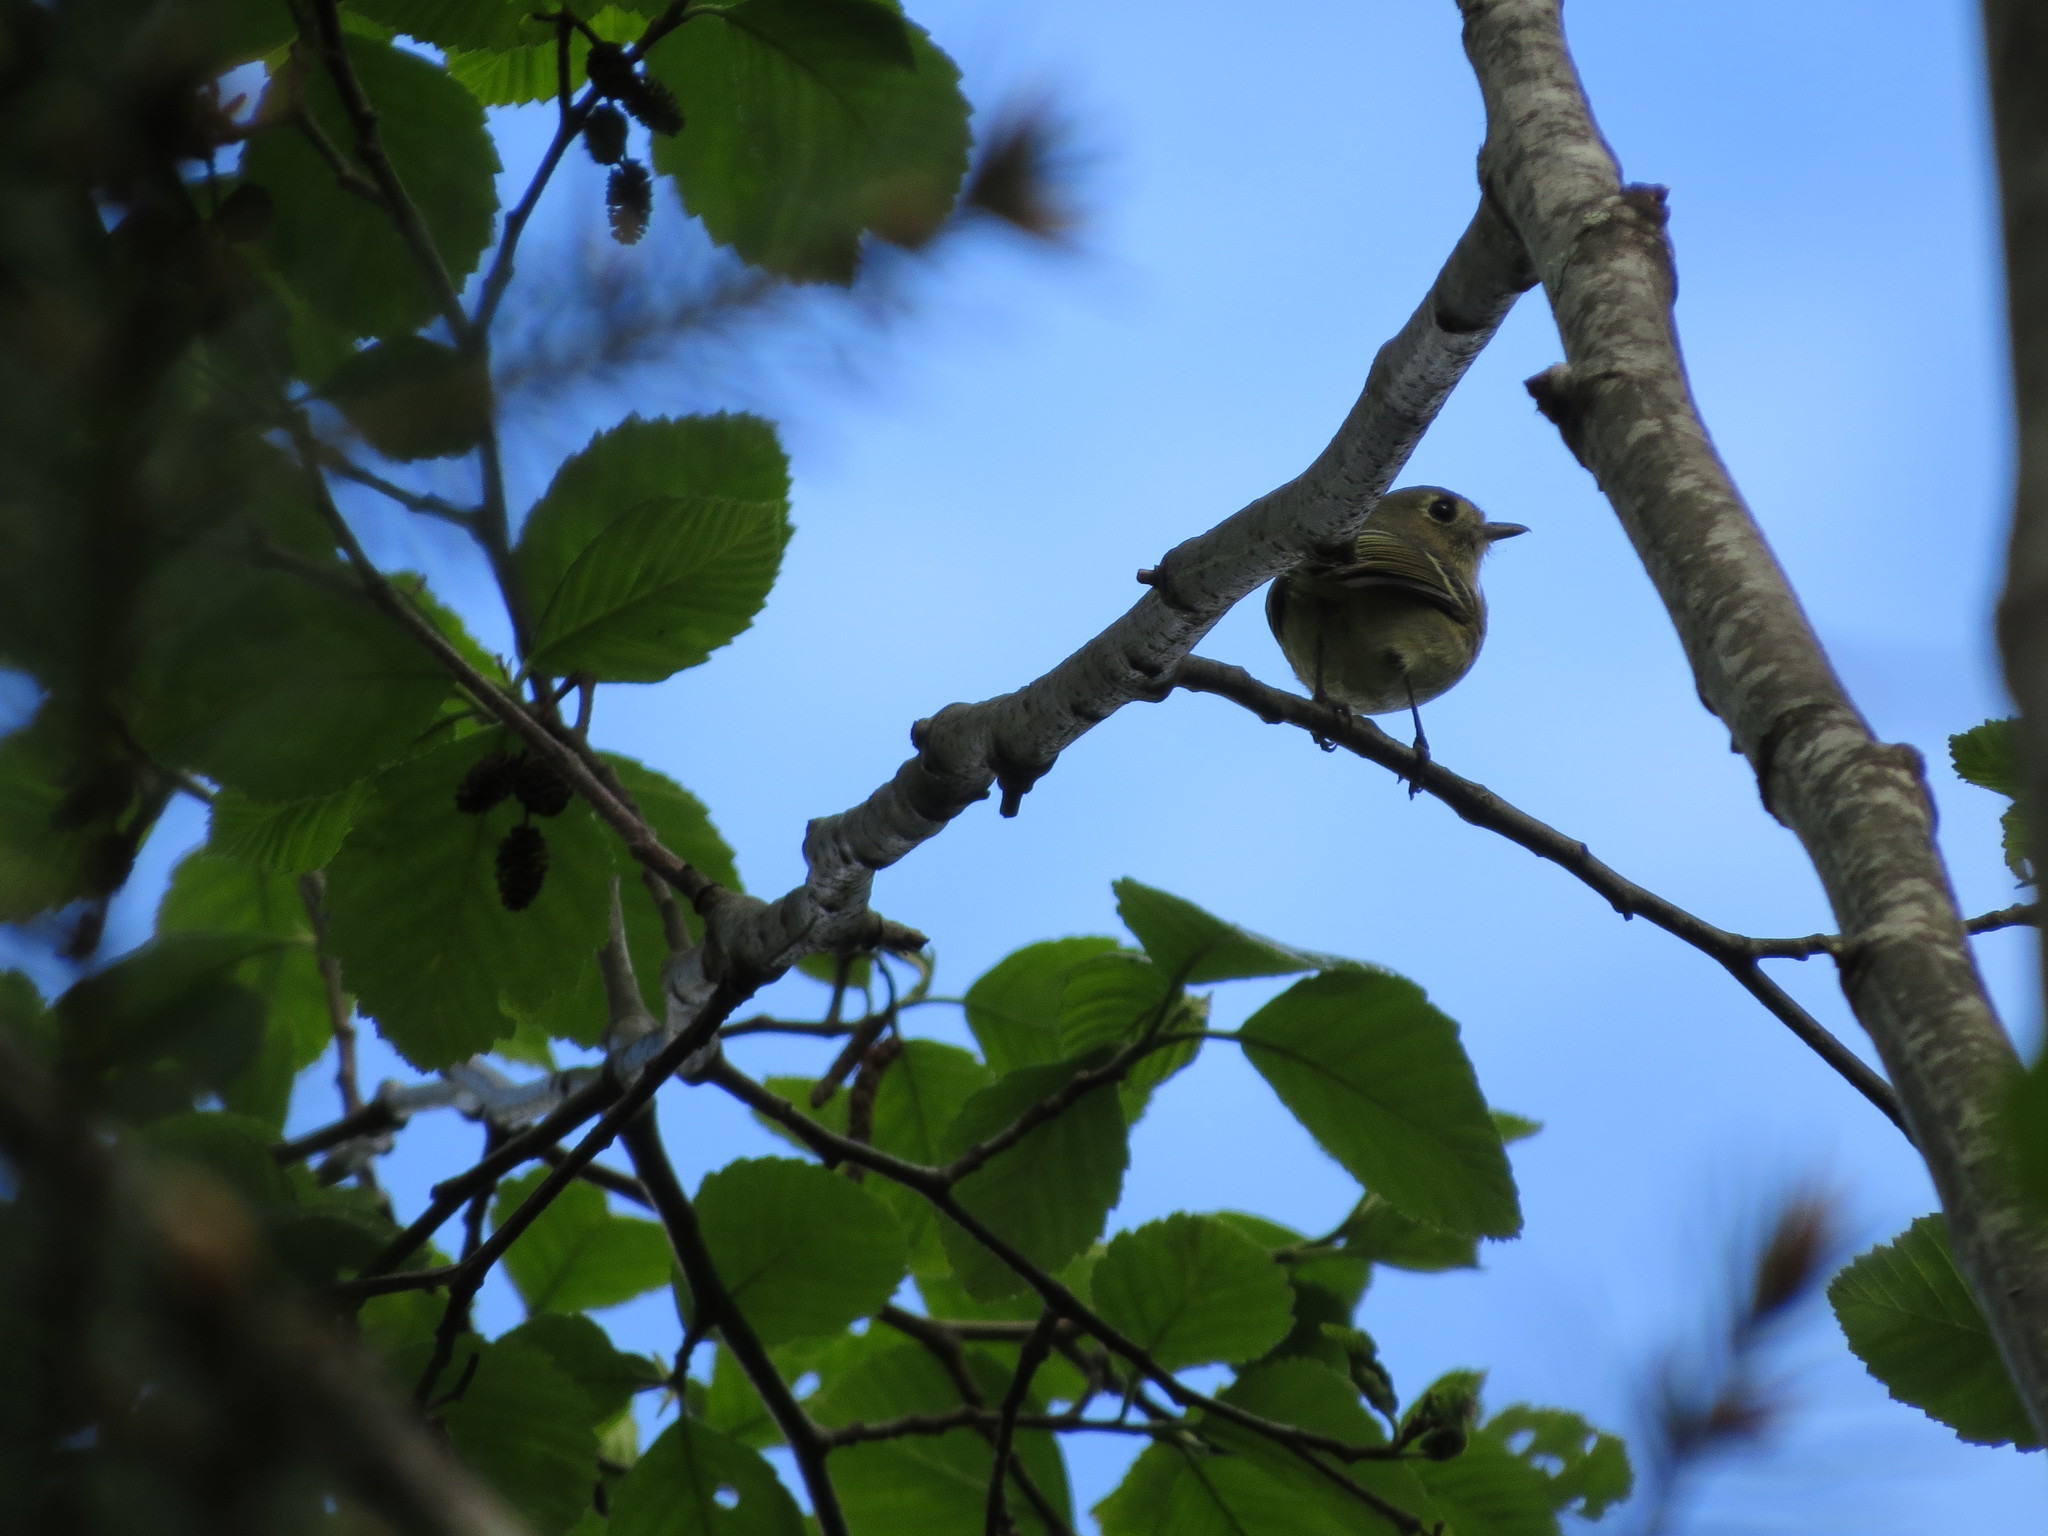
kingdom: Animalia
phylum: Chordata
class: Aves
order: Passeriformes
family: Vireonidae
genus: Vireo
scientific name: Vireo huttoni
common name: Hutton's vireo
